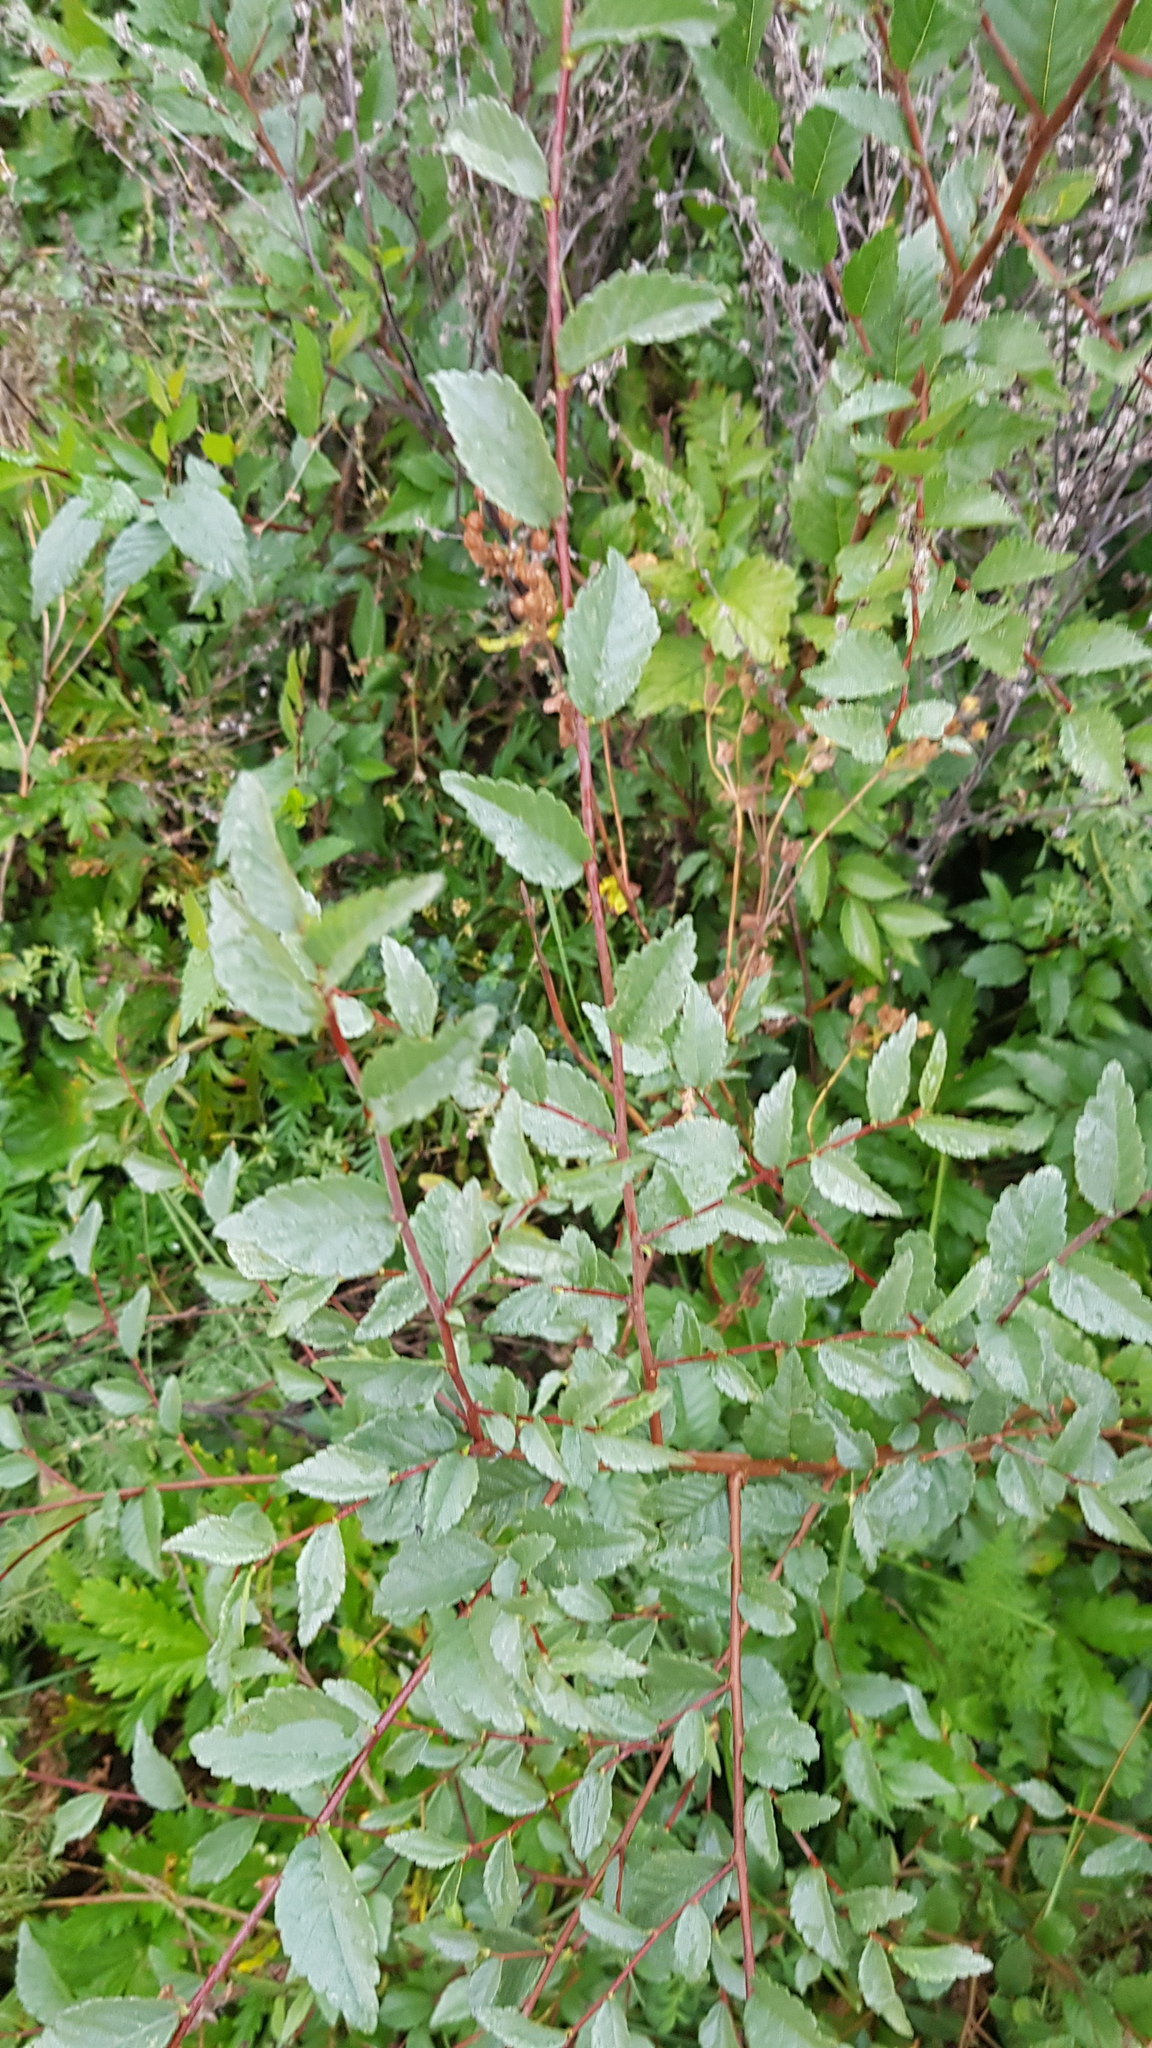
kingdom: Plantae
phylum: Tracheophyta
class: Magnoliopsida
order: Rosales
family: Ulmaceae
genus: Ulmus
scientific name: Ulmus pumila
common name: Siberian elm
